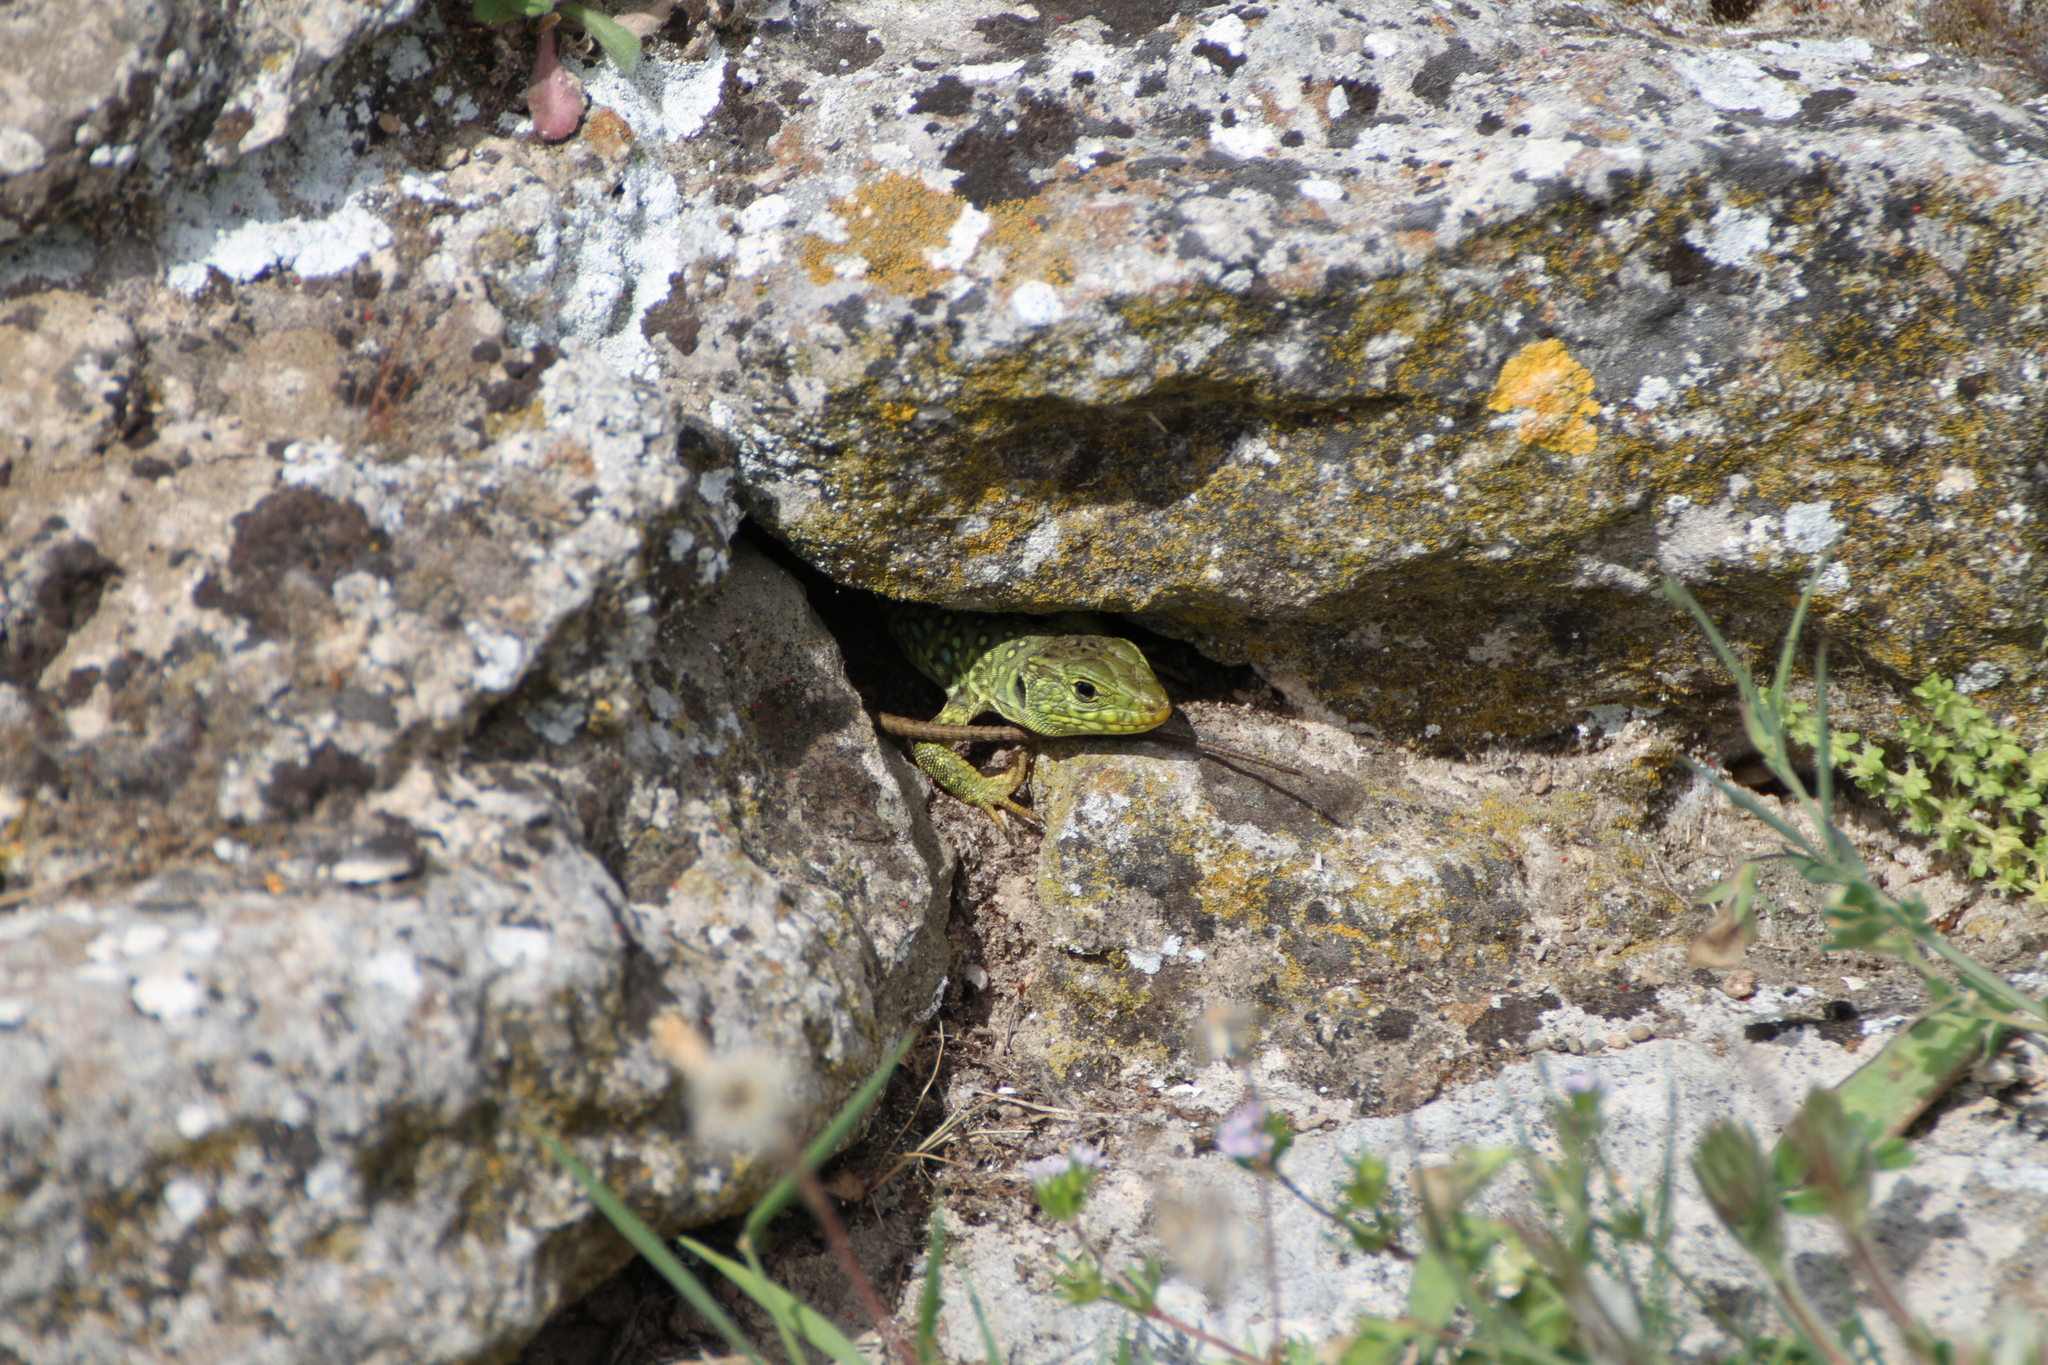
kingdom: Animalia
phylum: Chordata
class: Squamata
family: Lacertidae
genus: Timon
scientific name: Timon lepidus
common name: Ocellated lizard
